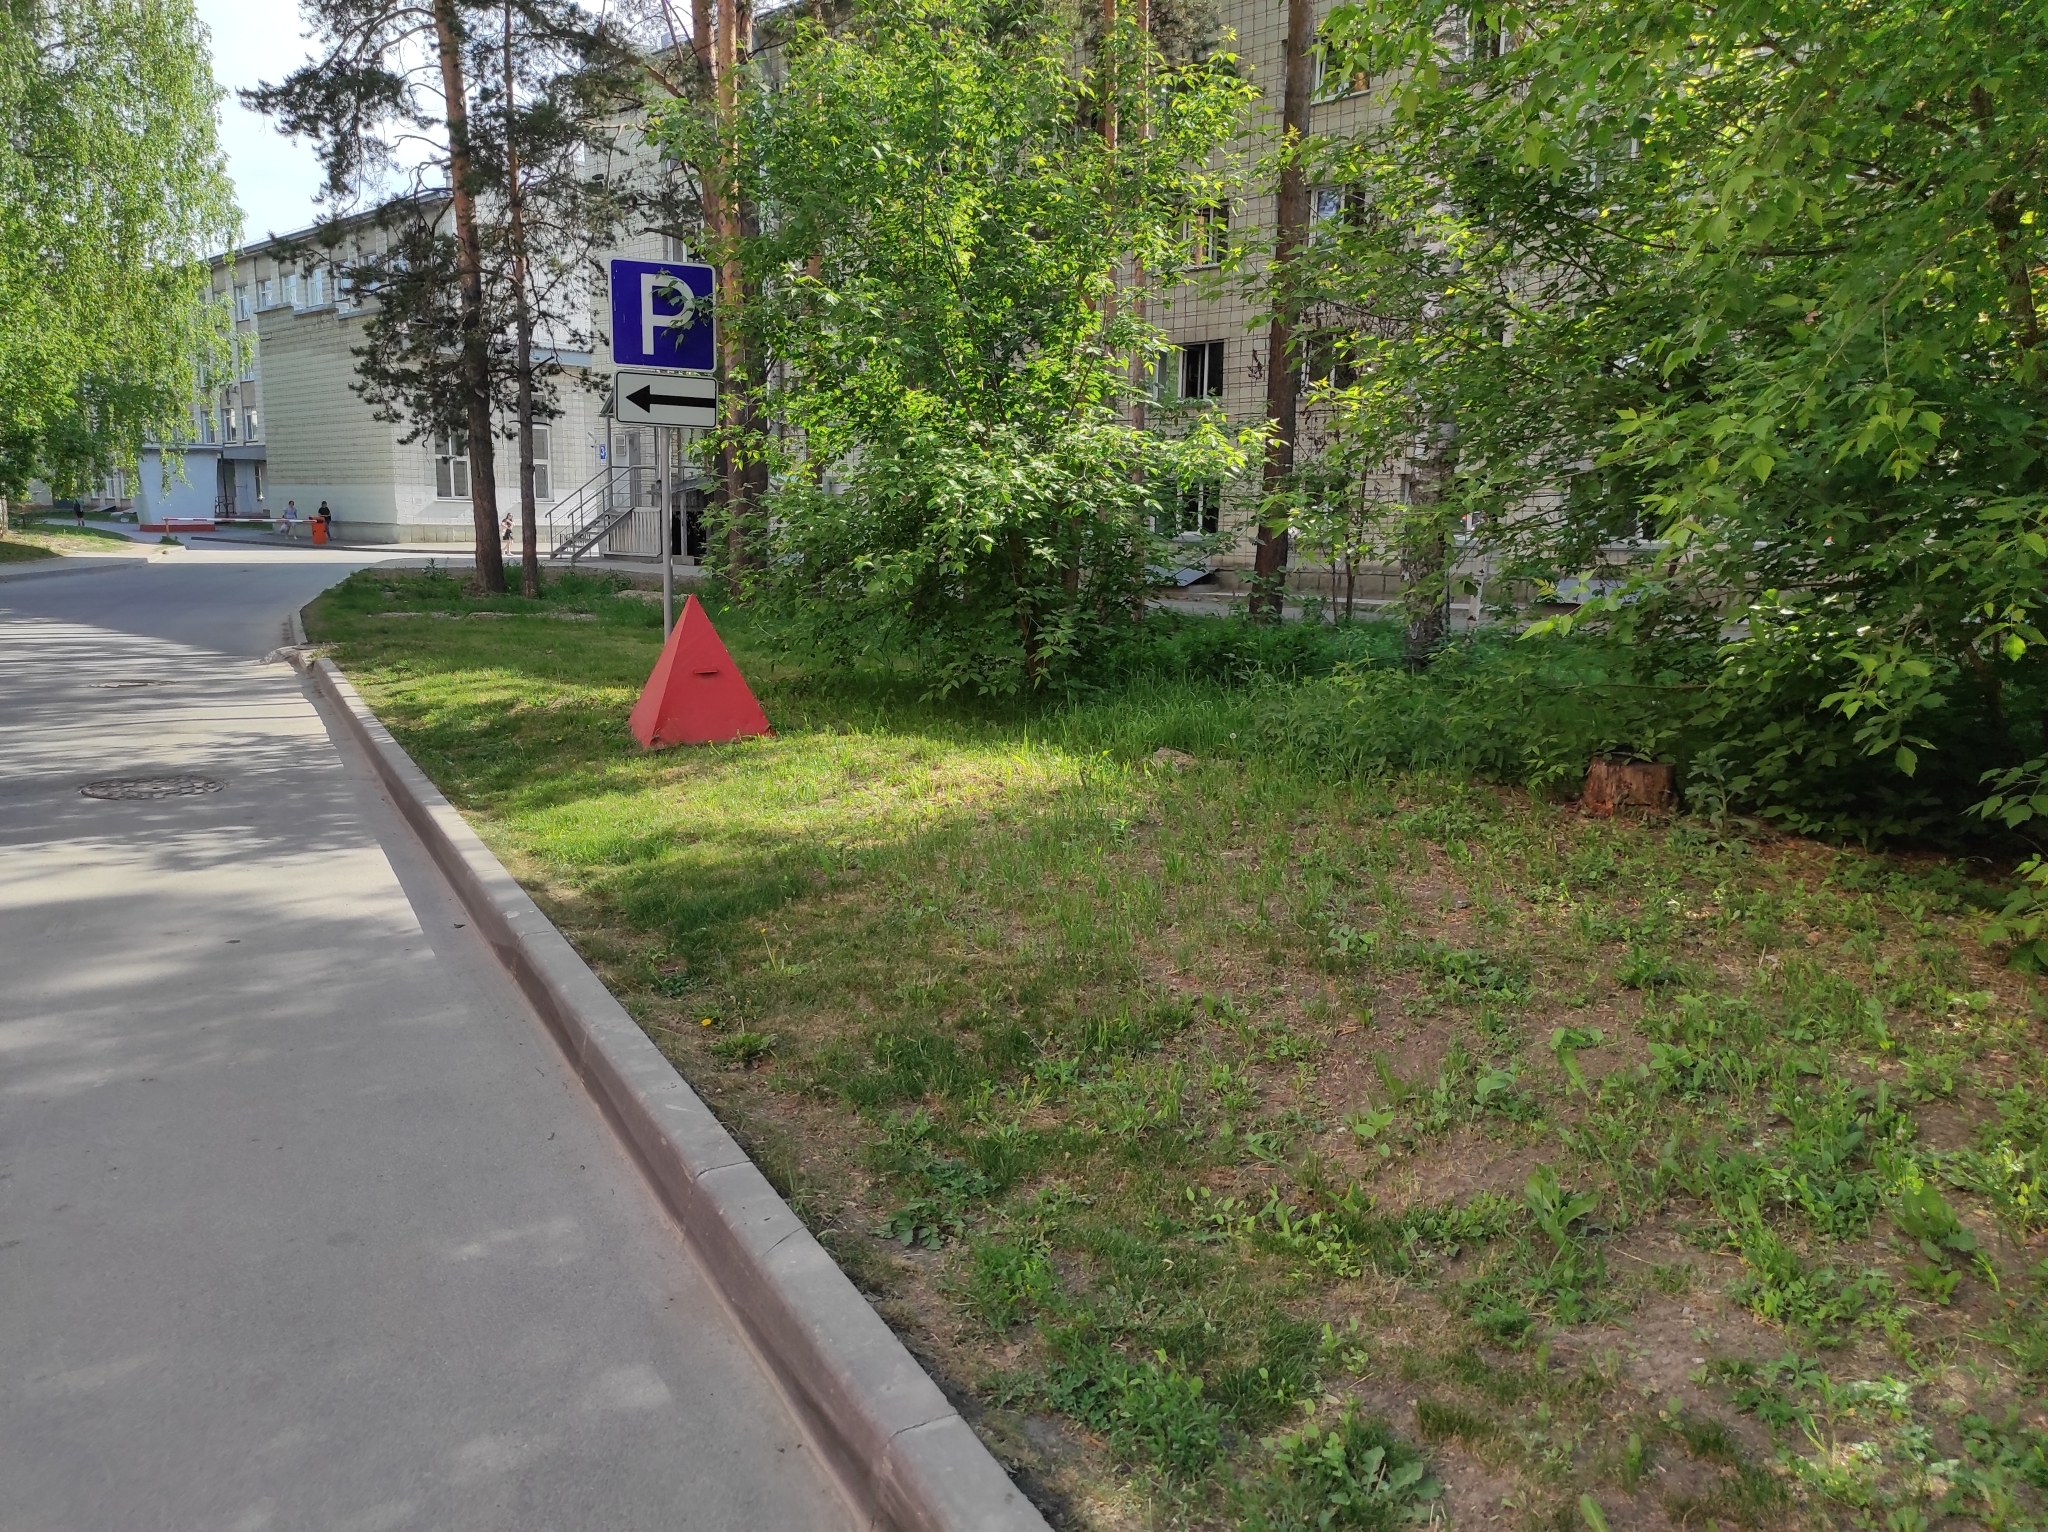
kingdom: Plantae
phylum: Tracheophyta
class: Pinopsida
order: Pinales
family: Pinaceae
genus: Pinus
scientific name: Pinus sylvestris
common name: Scots pine
